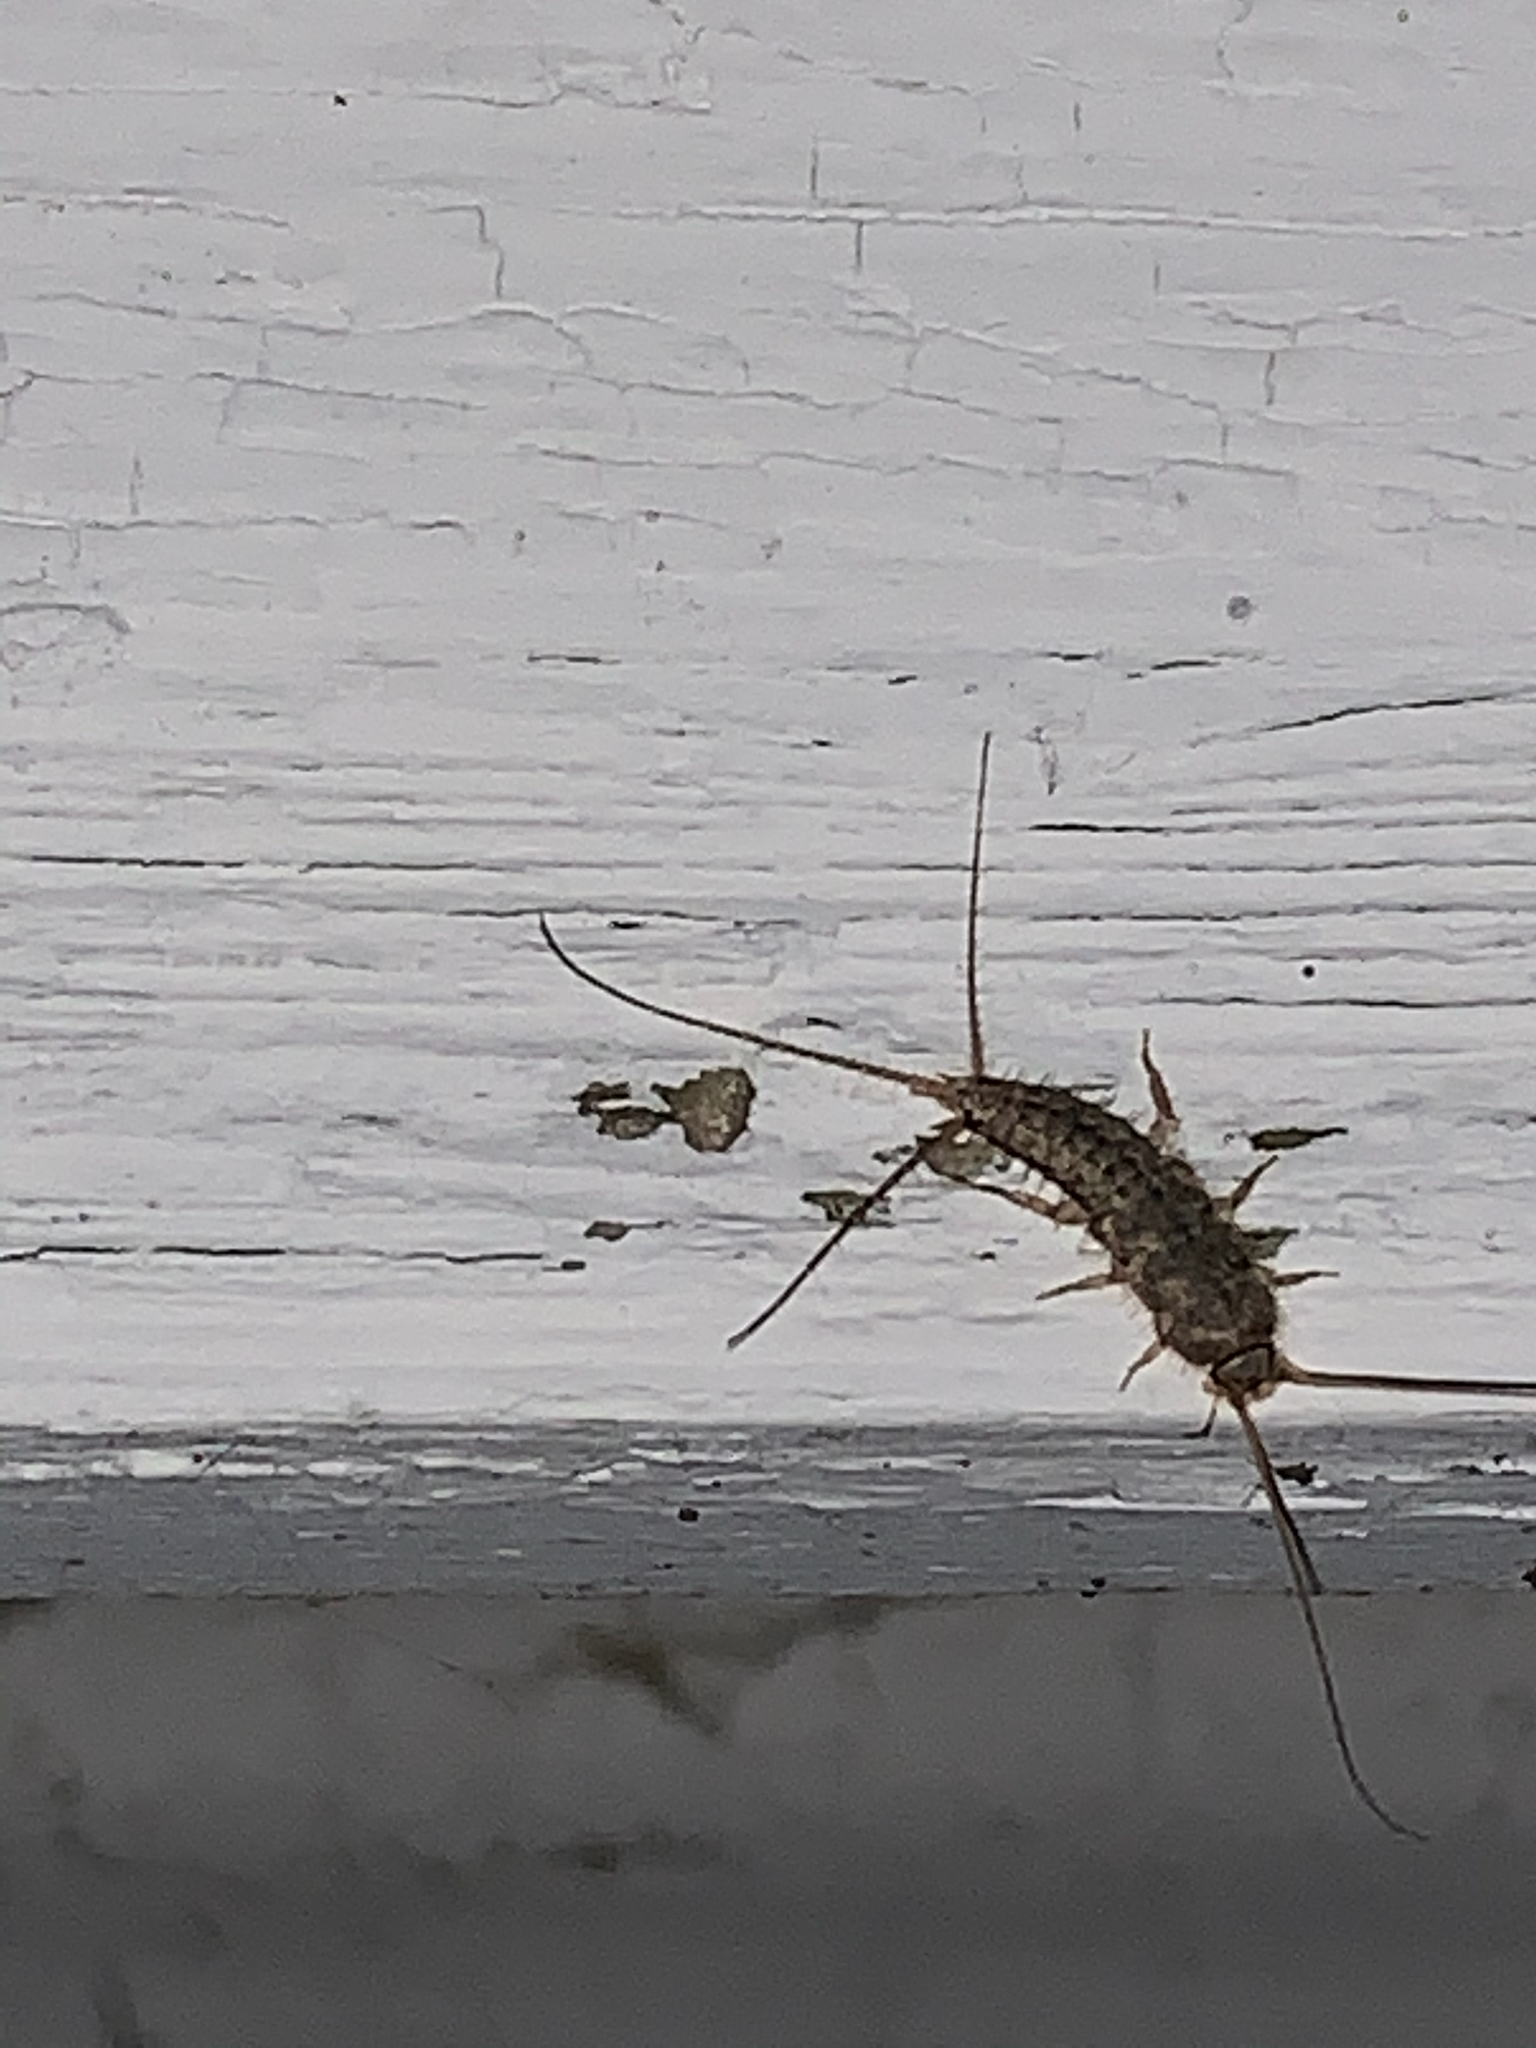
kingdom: Animalia
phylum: Arthropoda
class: Insecta
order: Zygentoma
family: Lepismatidae
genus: Ctenolepisma
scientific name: Ctenolepisma lineata
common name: Four-lined silverfish
